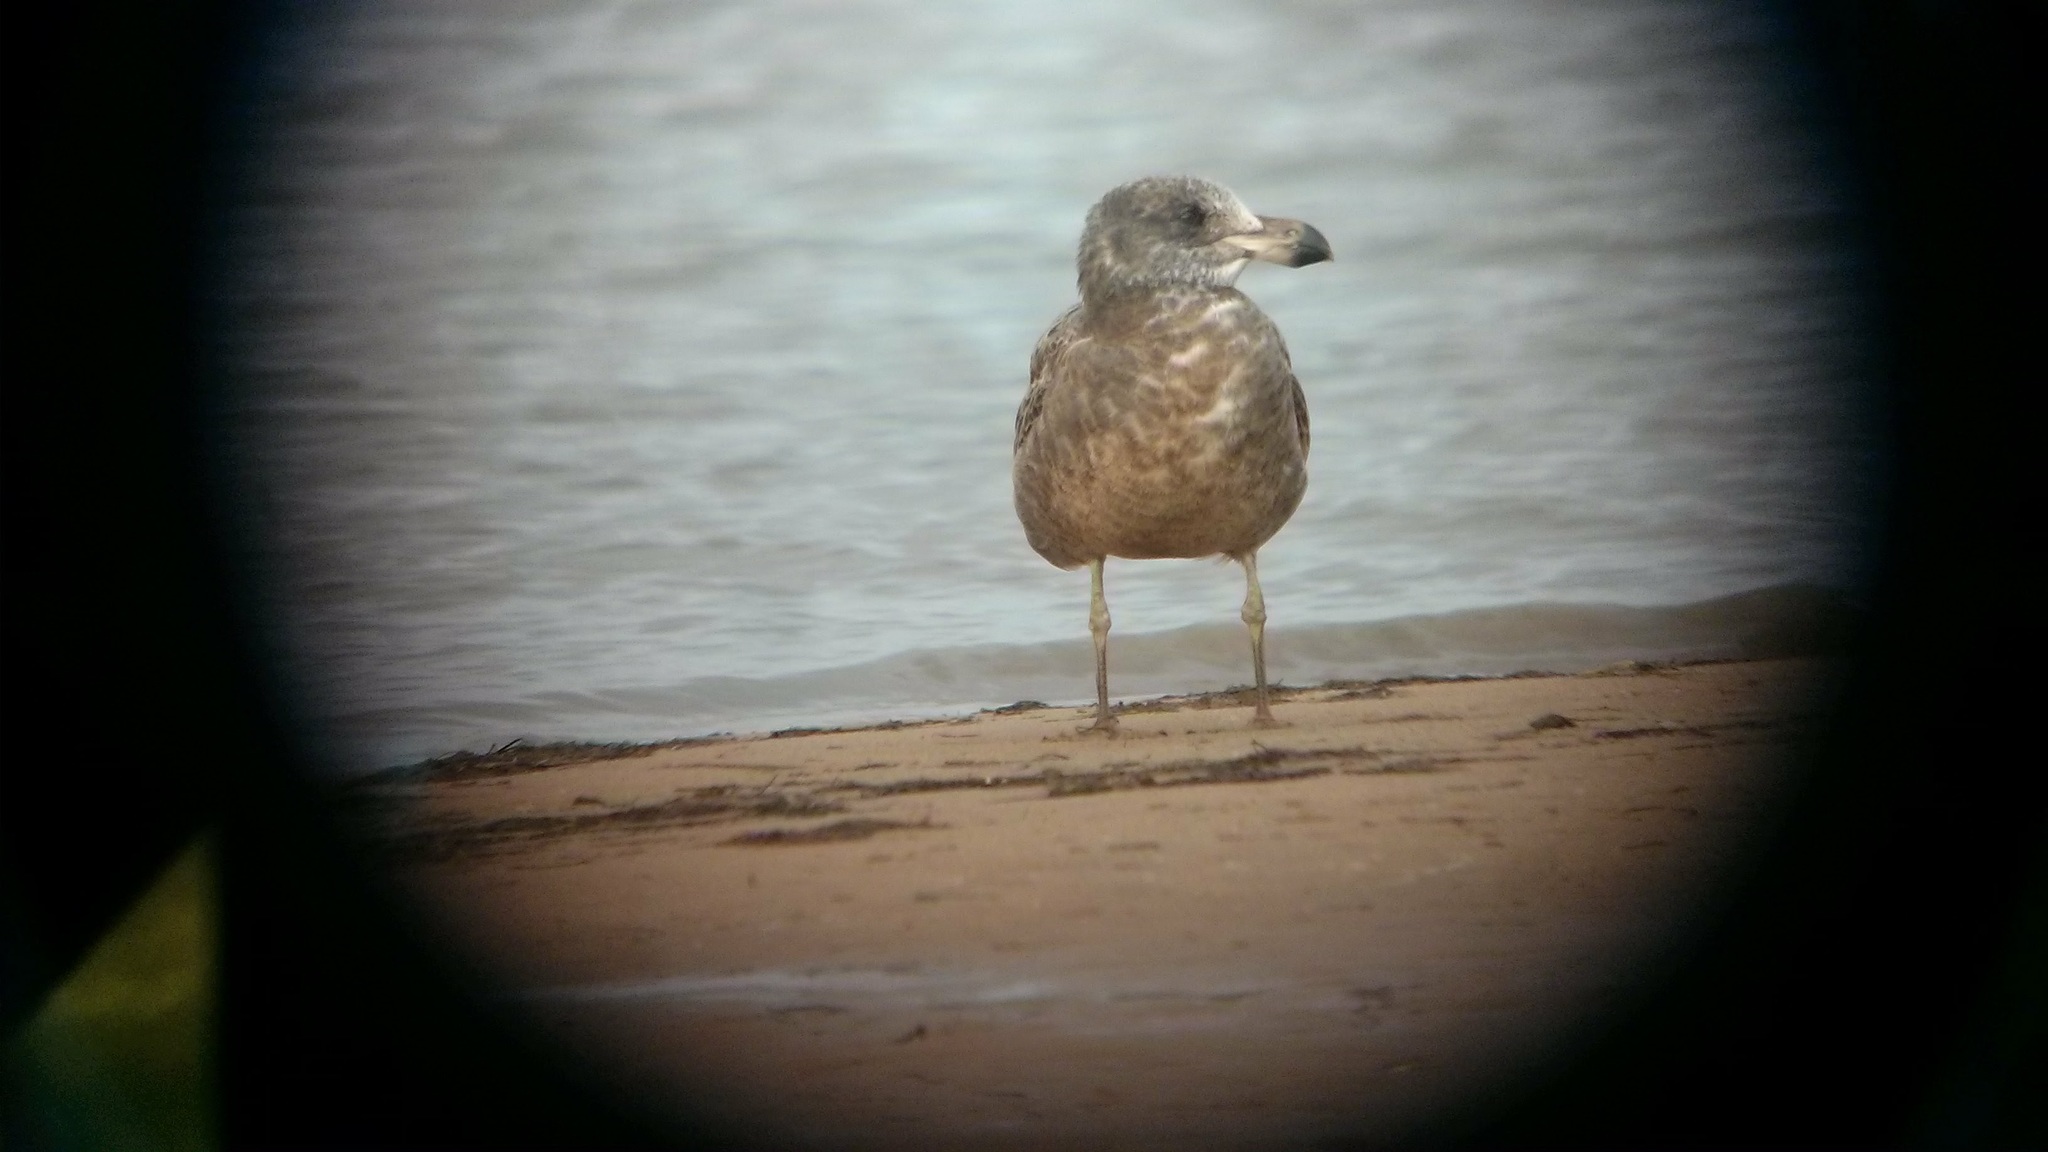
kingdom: Animalia
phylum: Chordata
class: Aves
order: Charadriiformes
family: Laridae
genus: Larus
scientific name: Larus pacificus
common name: Pacific gull
